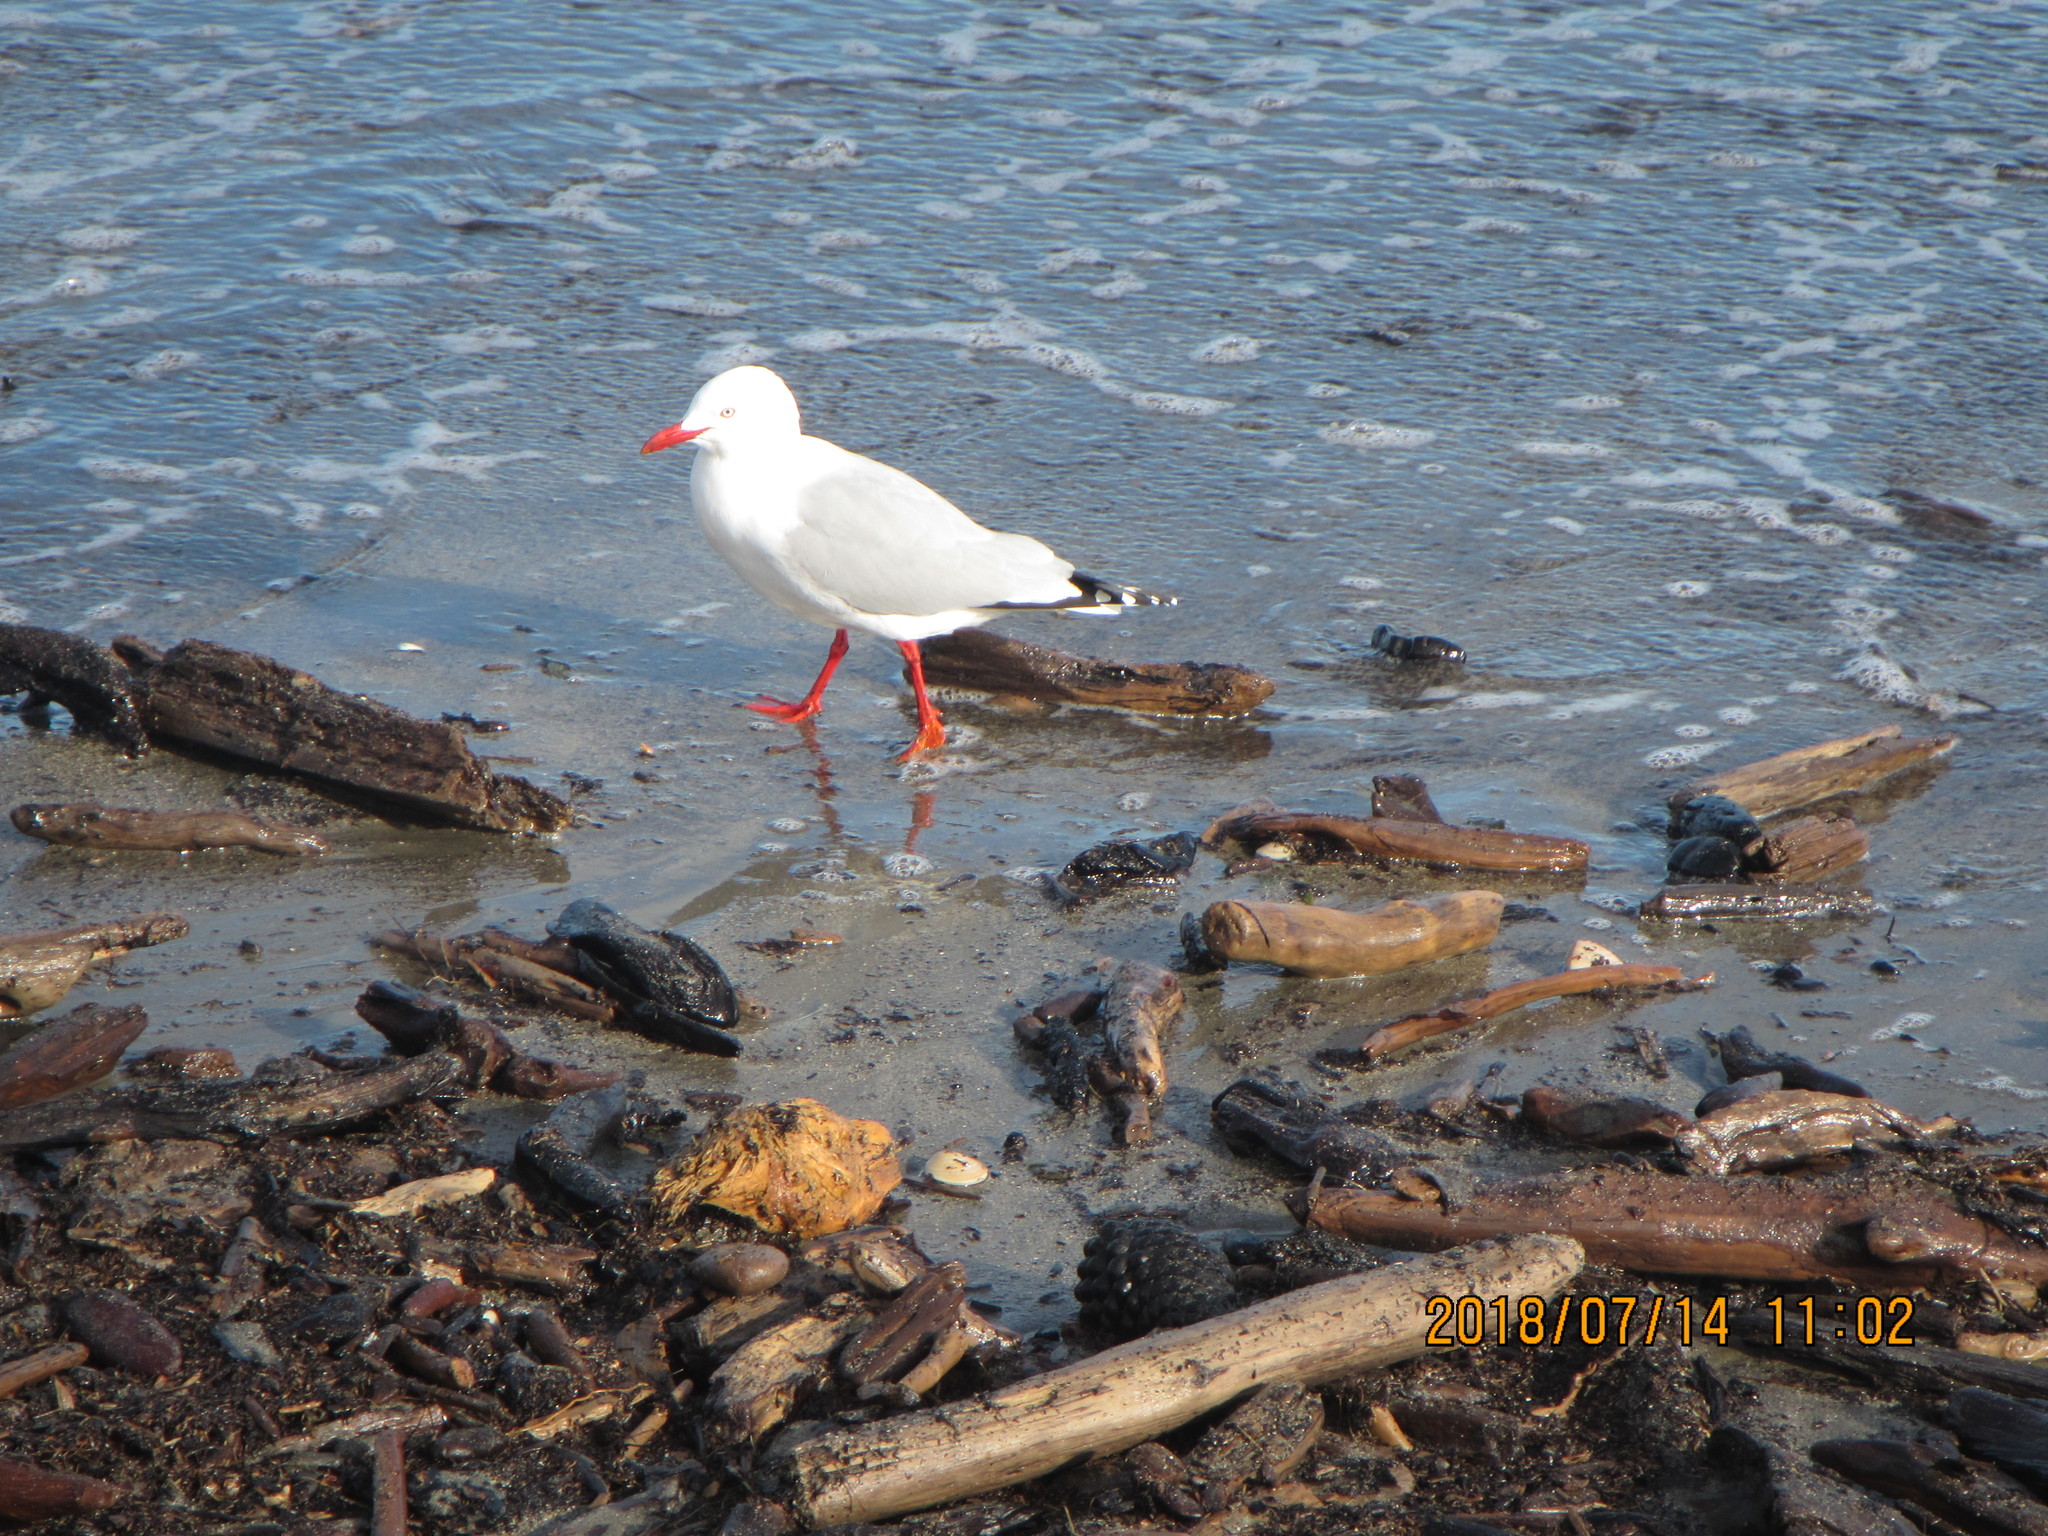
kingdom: Animalia
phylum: Chordata
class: Aves
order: Charadriiformes
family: Laridae
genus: Chroicocephalus
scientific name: Chroicocephalus novaehollandiae
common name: Silver gull
